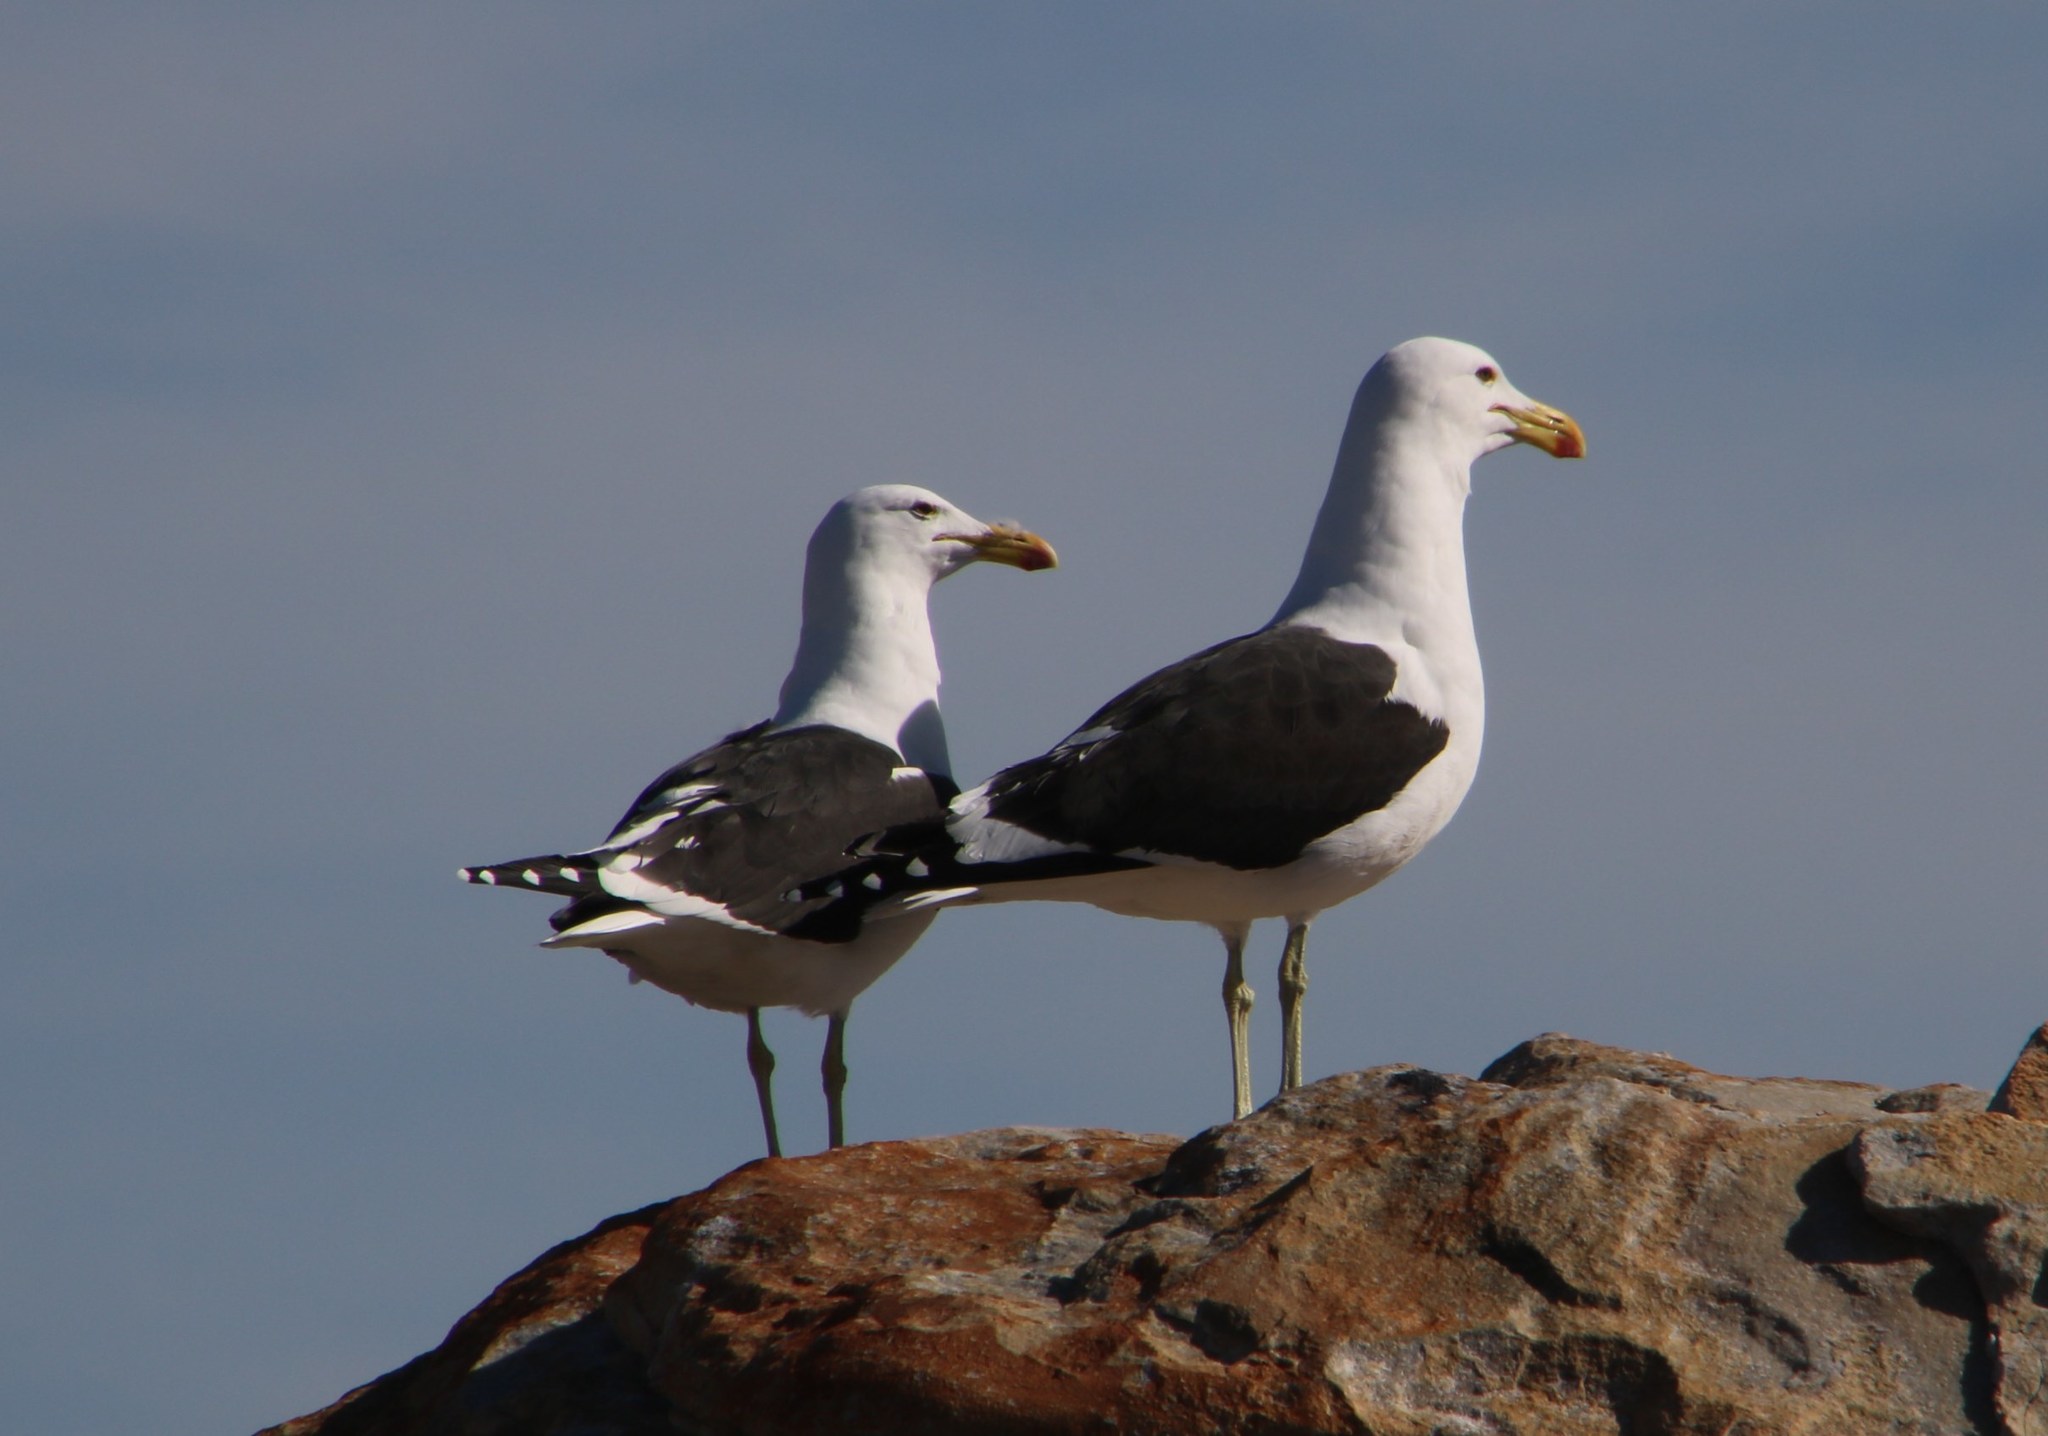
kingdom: Animalia
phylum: Chordata
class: Aves
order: Charadriiformes
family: Laridae
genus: Larus
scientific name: Larus dominicanus
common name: Kelp gull
